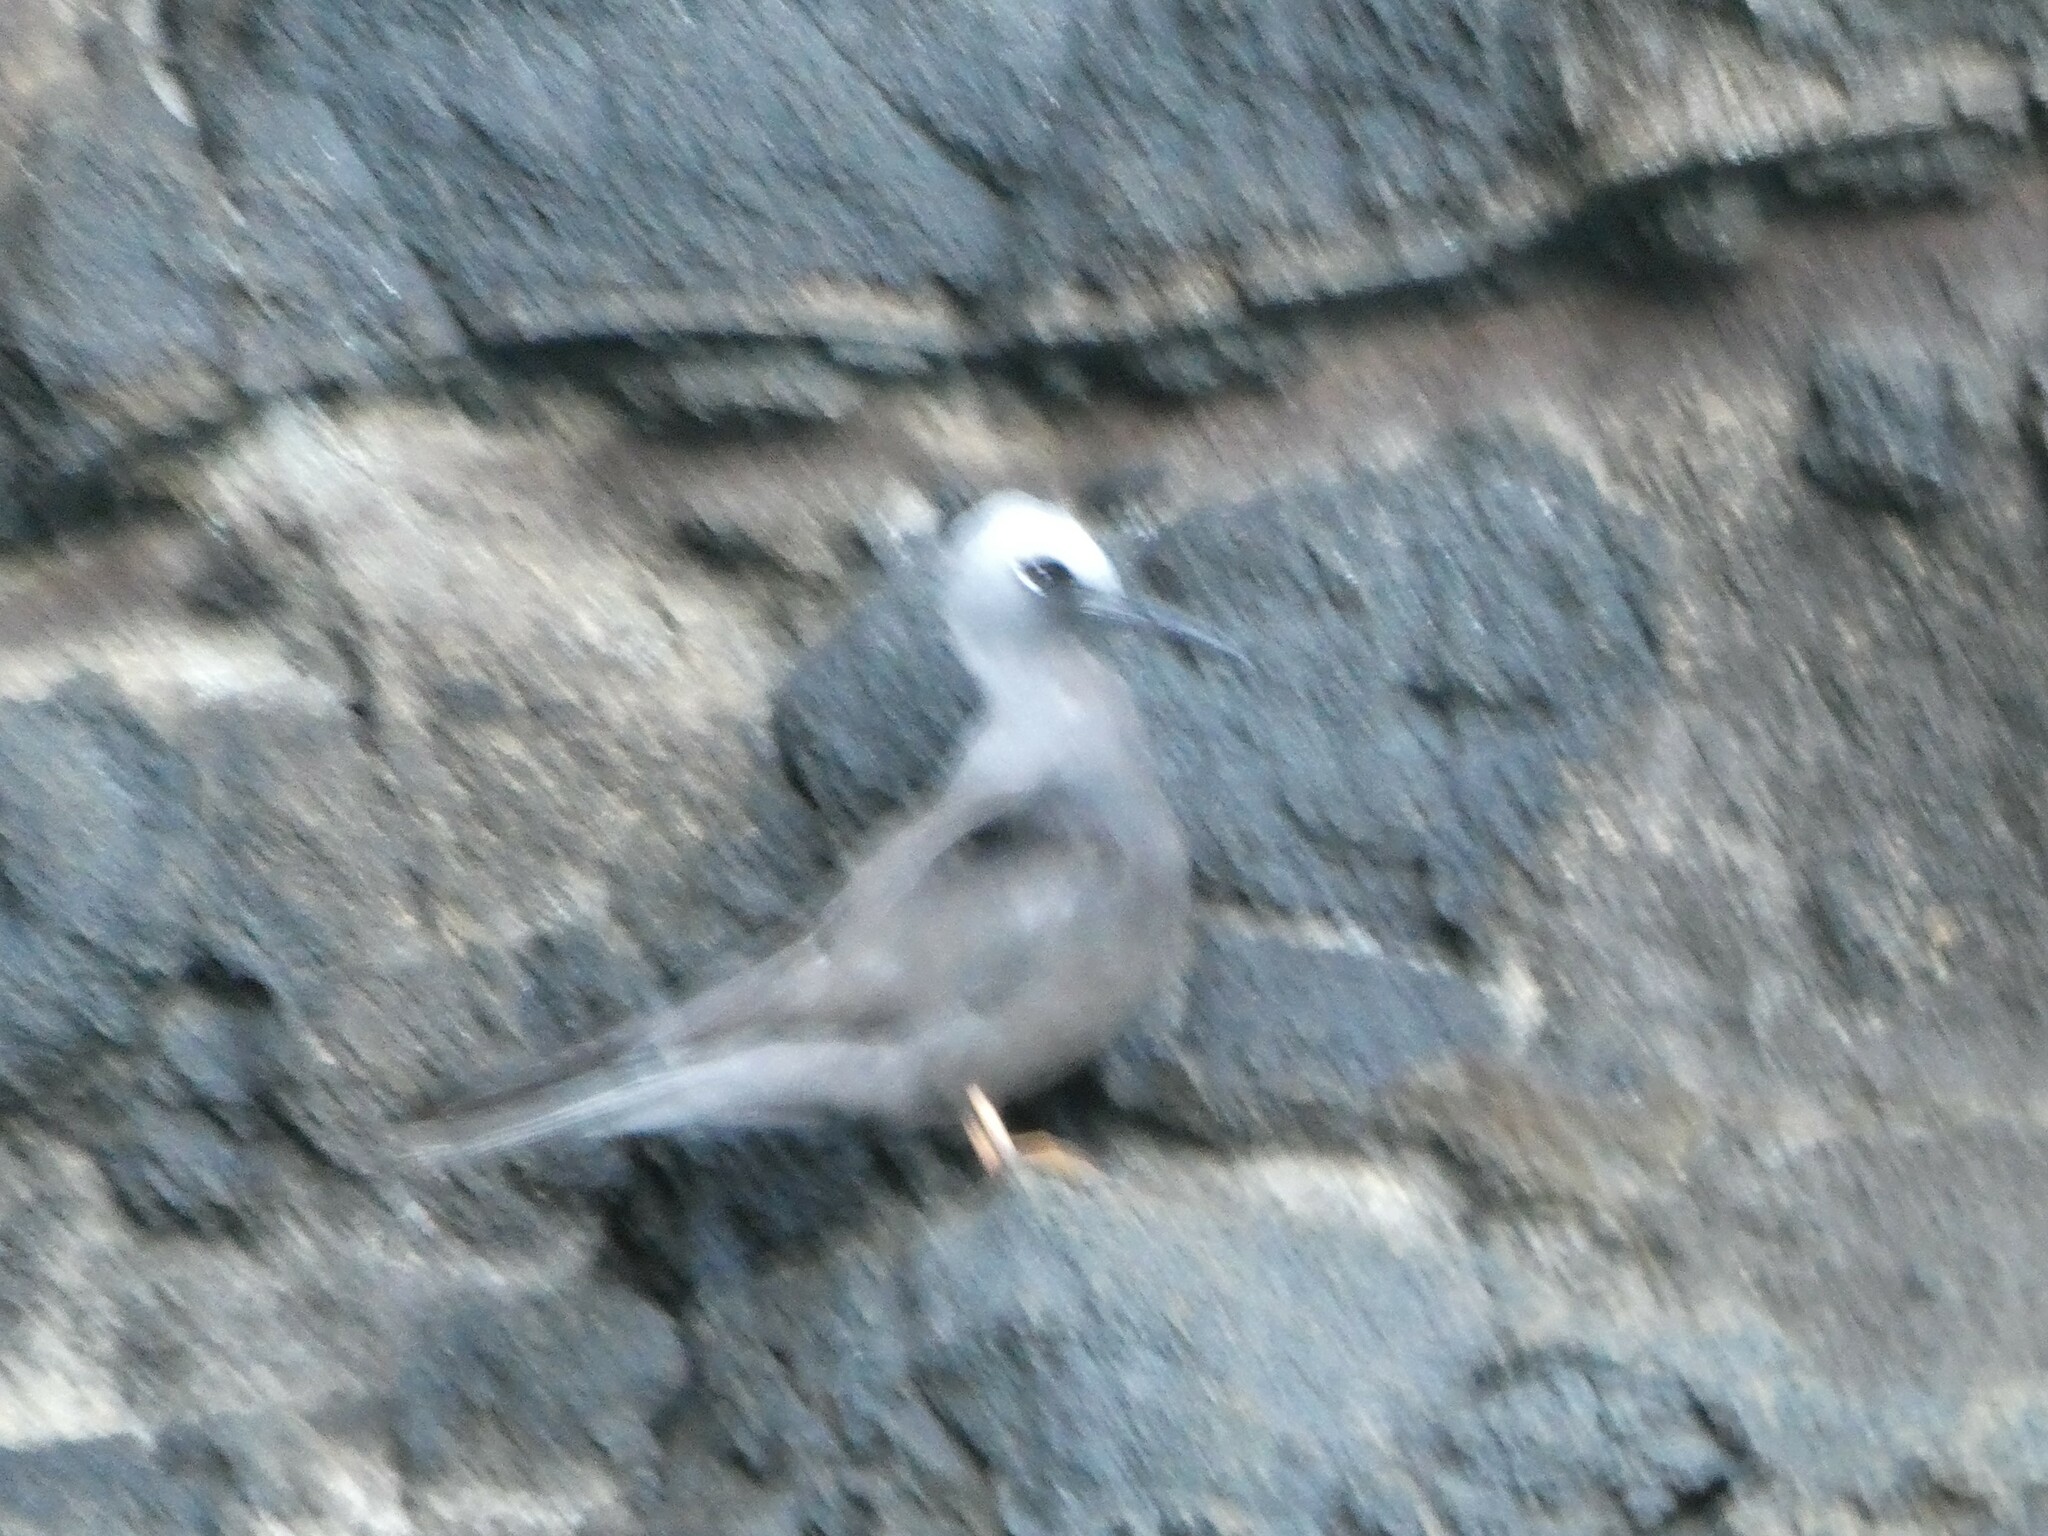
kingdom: Animalia
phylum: Chordata
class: Aves
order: Charadriiformes
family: Laridae
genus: Anous
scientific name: Anous minutus
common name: Black noddy
